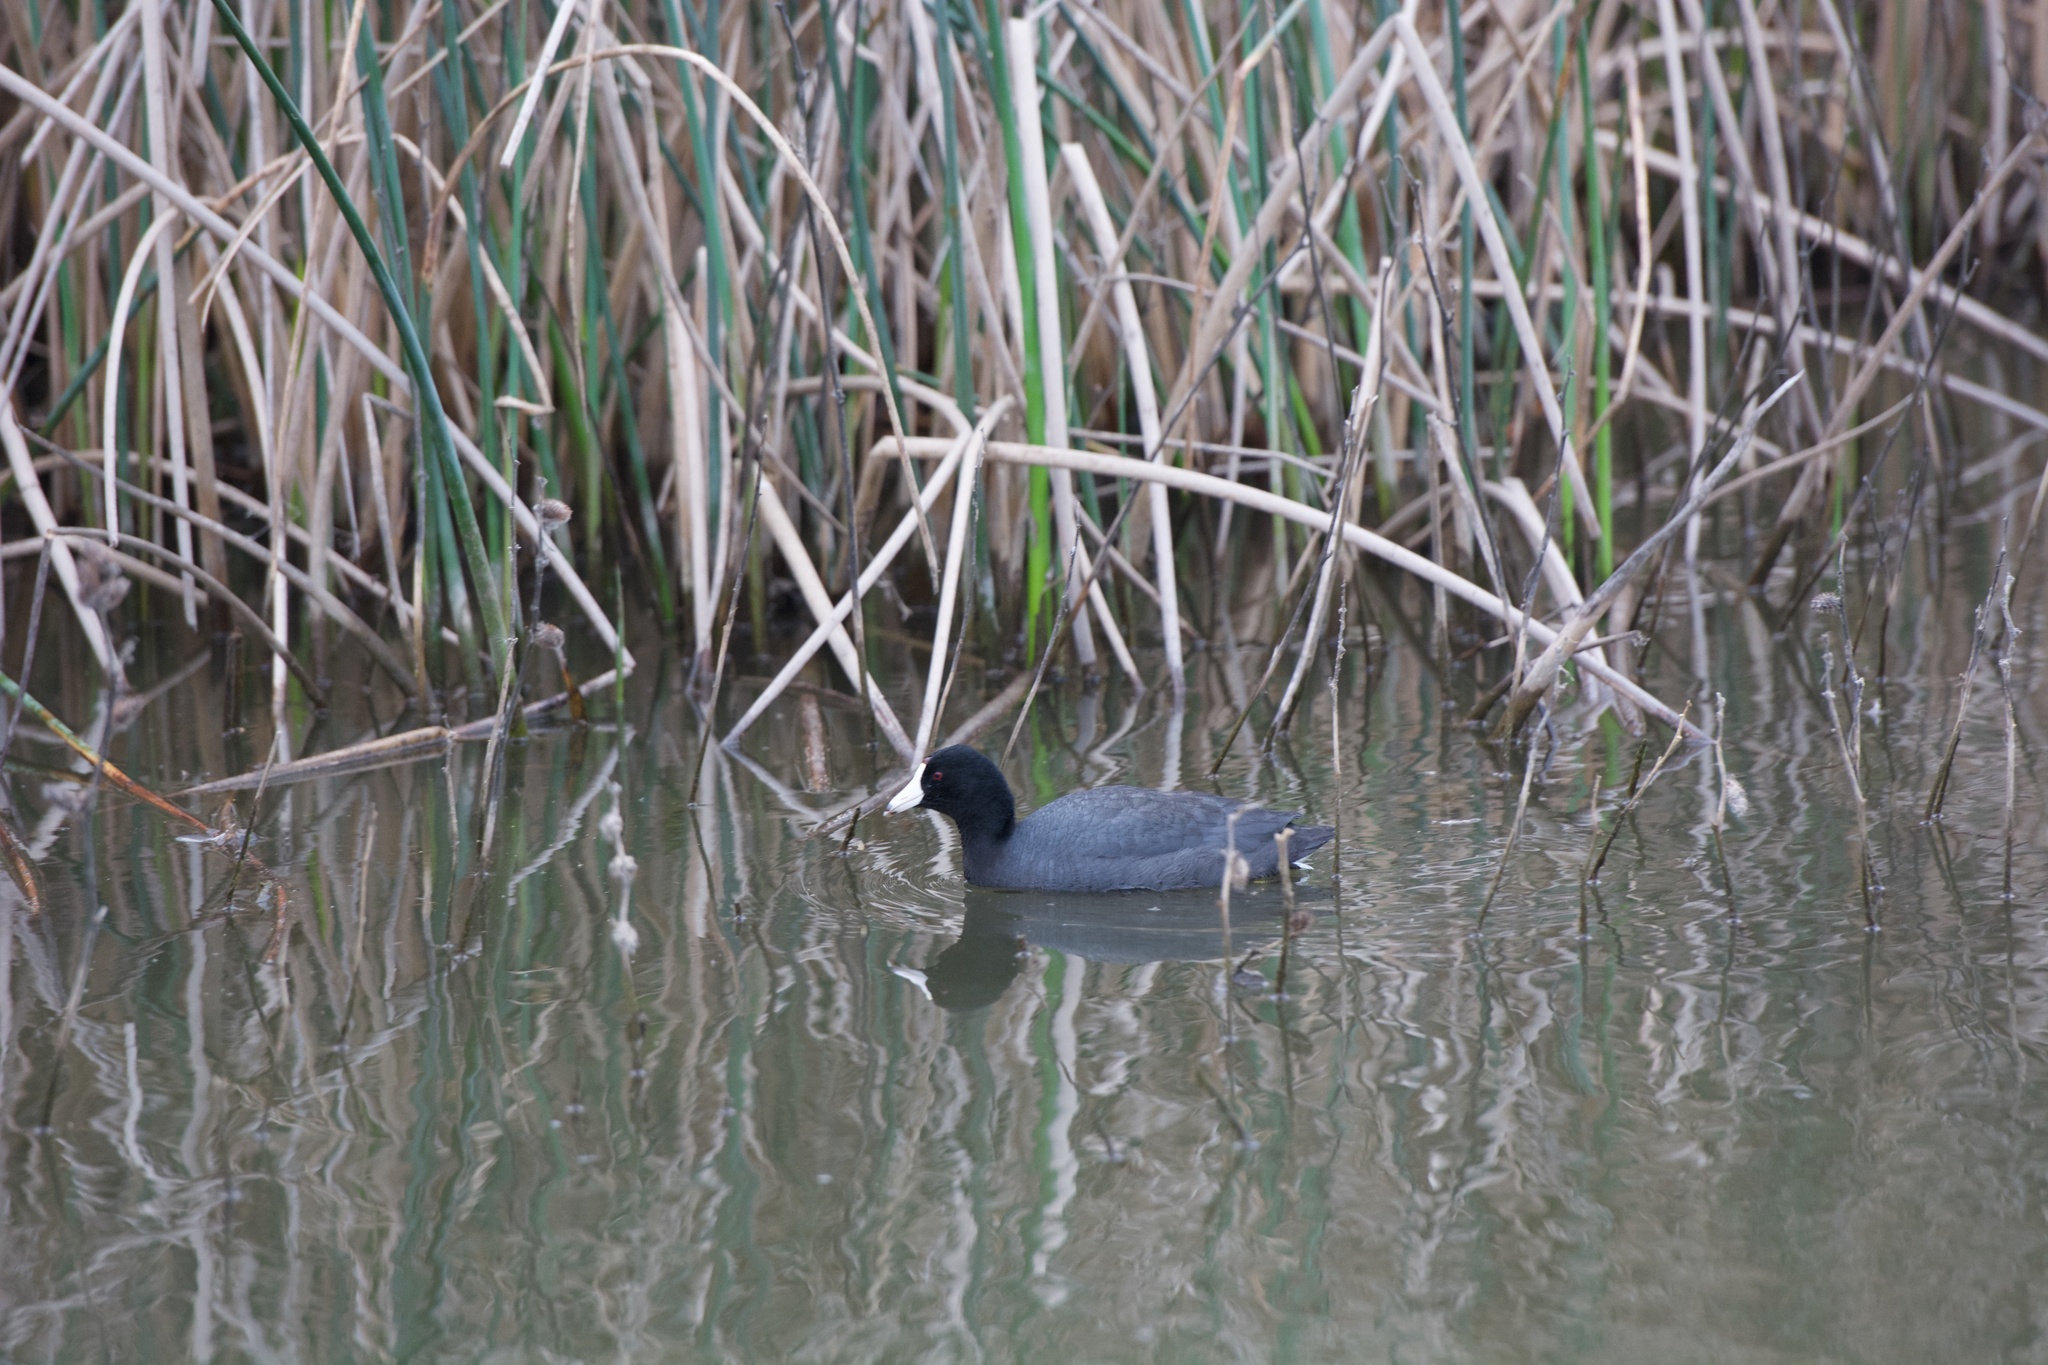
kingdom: Animalia
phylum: Chordata
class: Aves
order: Gruiformes
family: Rallidae
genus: Fulica
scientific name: Fulica americana
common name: American coot
